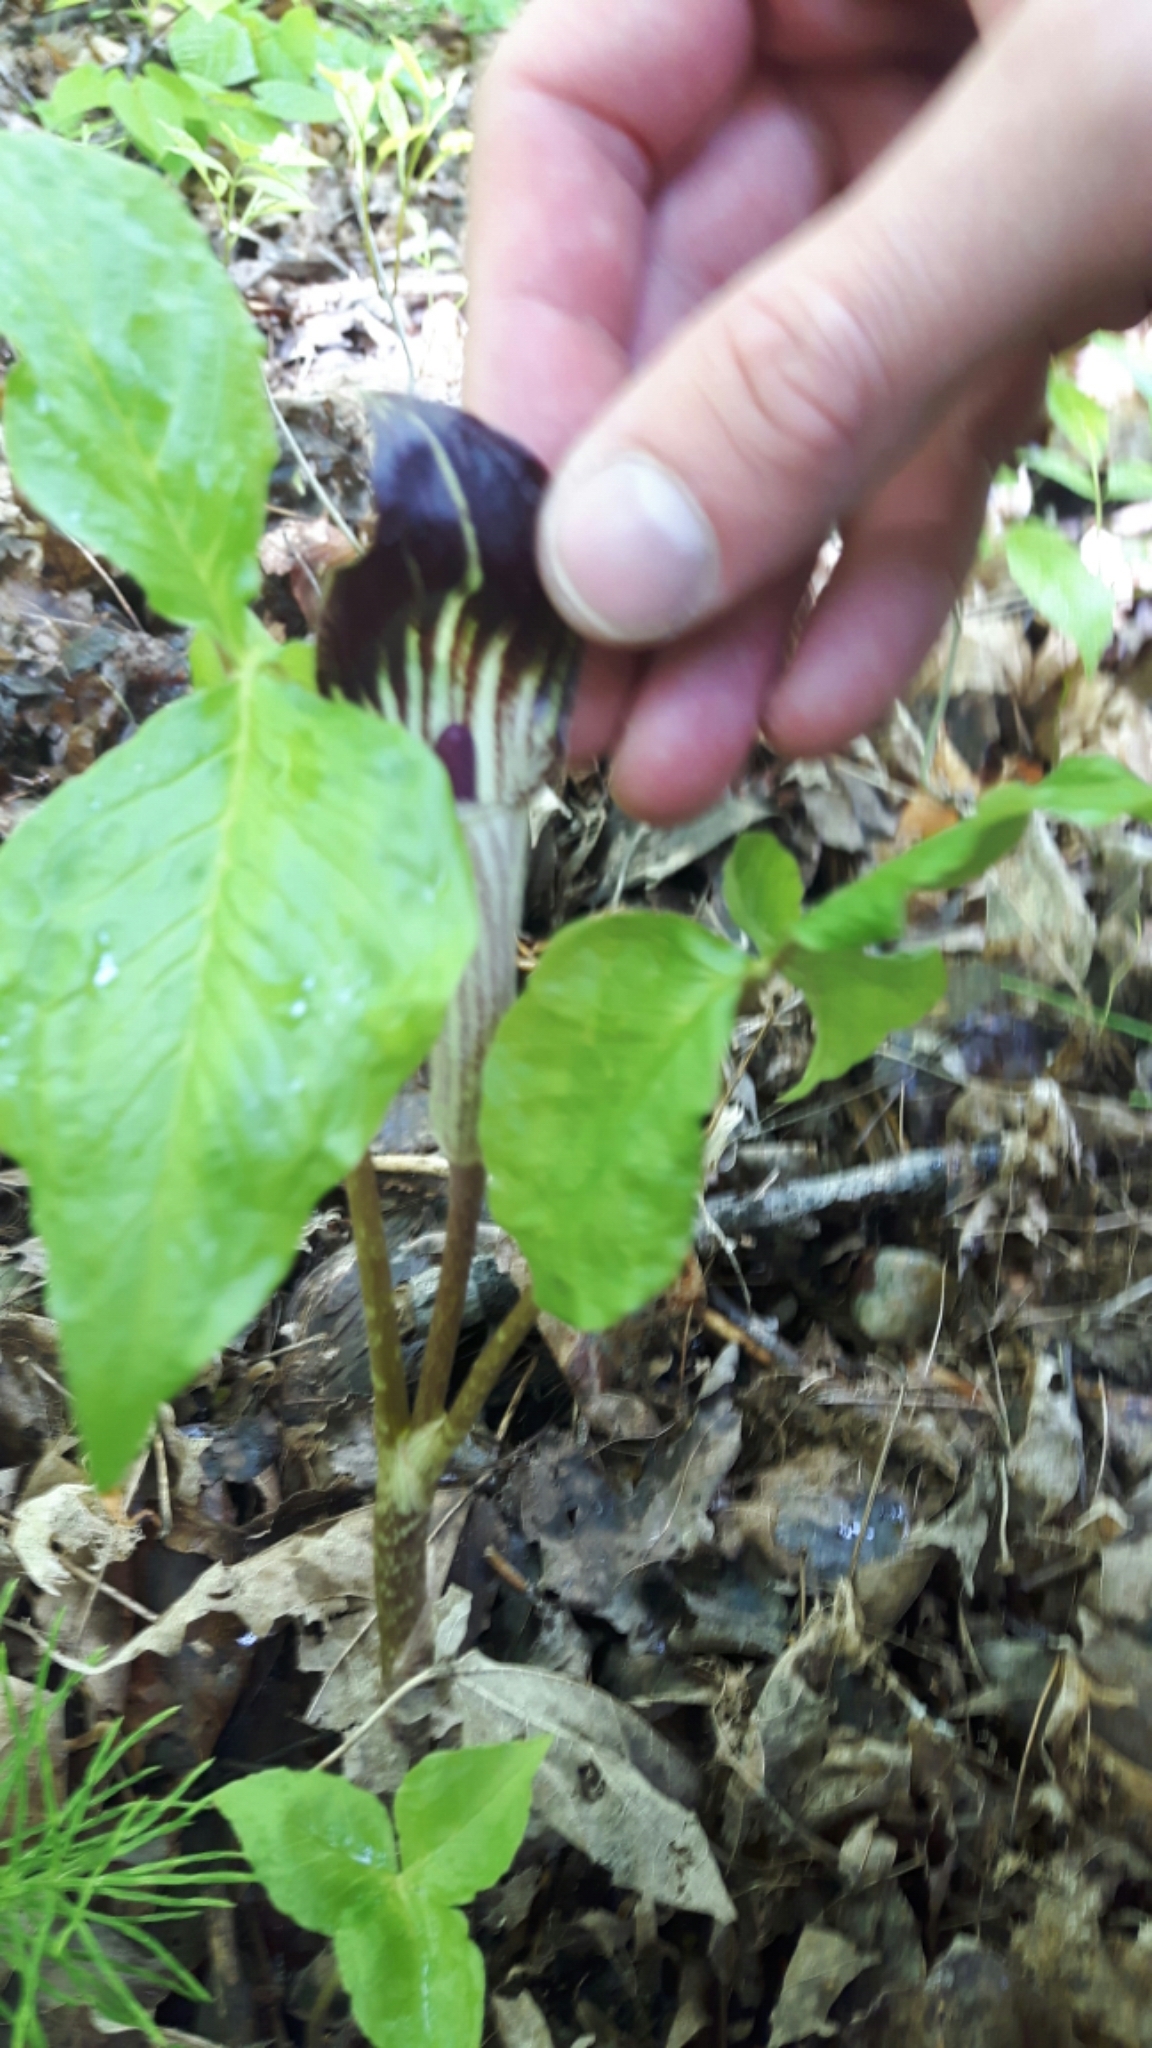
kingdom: Plantae
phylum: Tracheophyta
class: Liliopsida
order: Alismatales
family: Araceae
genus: Arisaema
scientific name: Arisaema triphyllum
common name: Jack-in-the-pulpit
